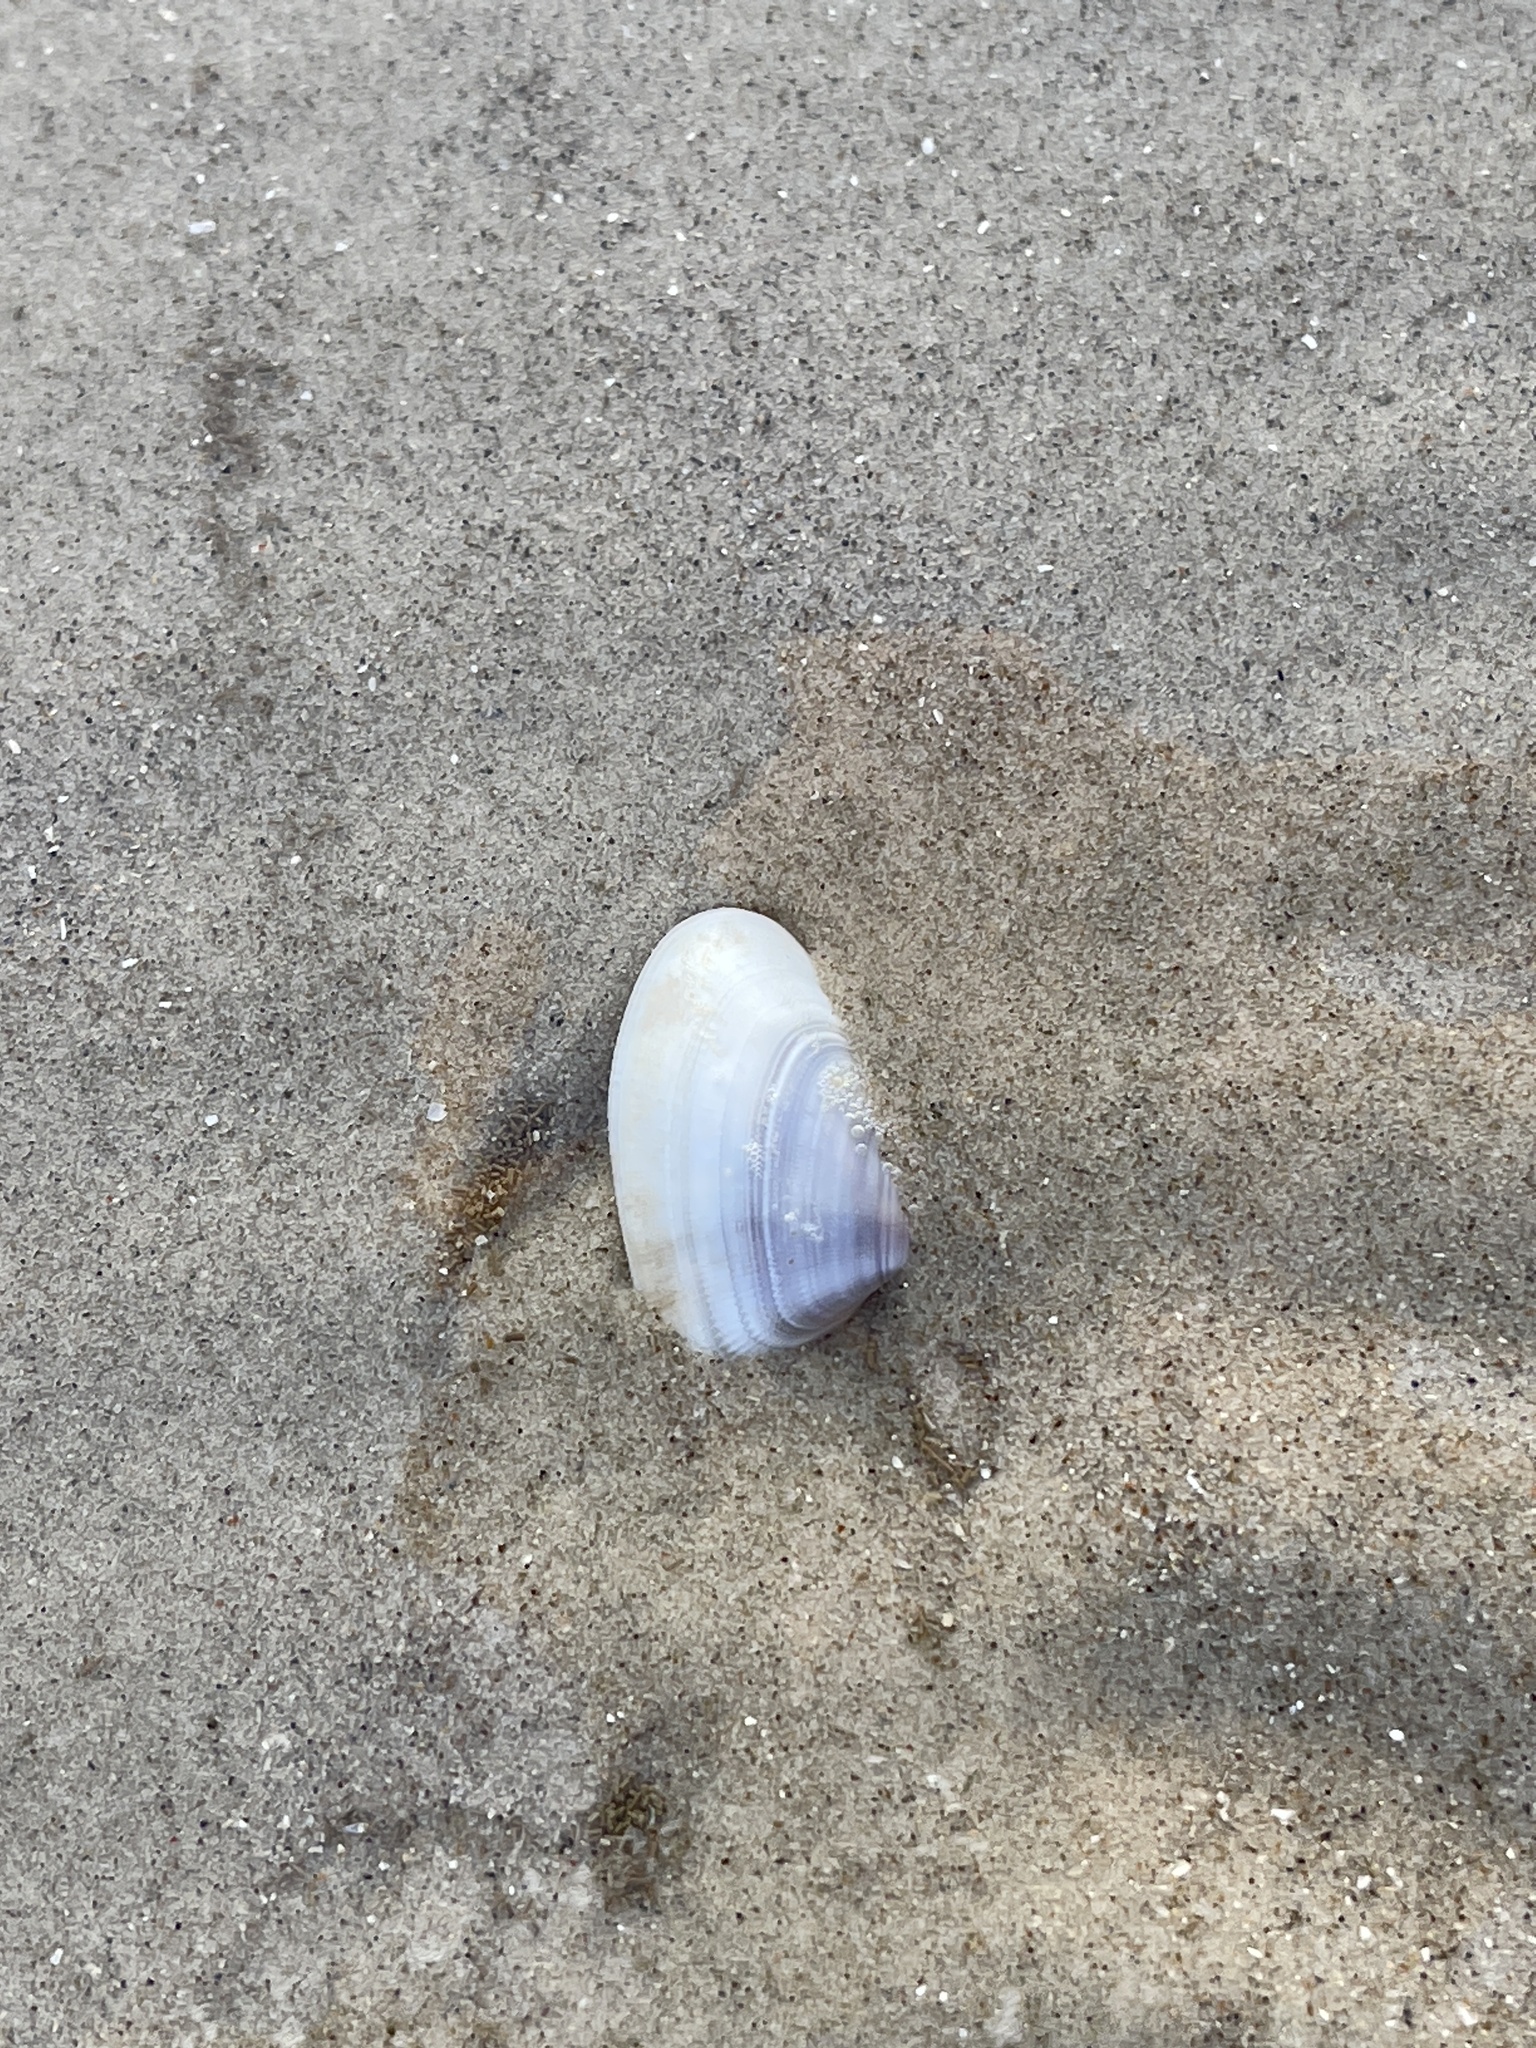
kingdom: Animalia
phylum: Mollusca
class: Bivalvia
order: Cardiida
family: Donacidae
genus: Donax
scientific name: Donax variabilis
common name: Butterfly shell
